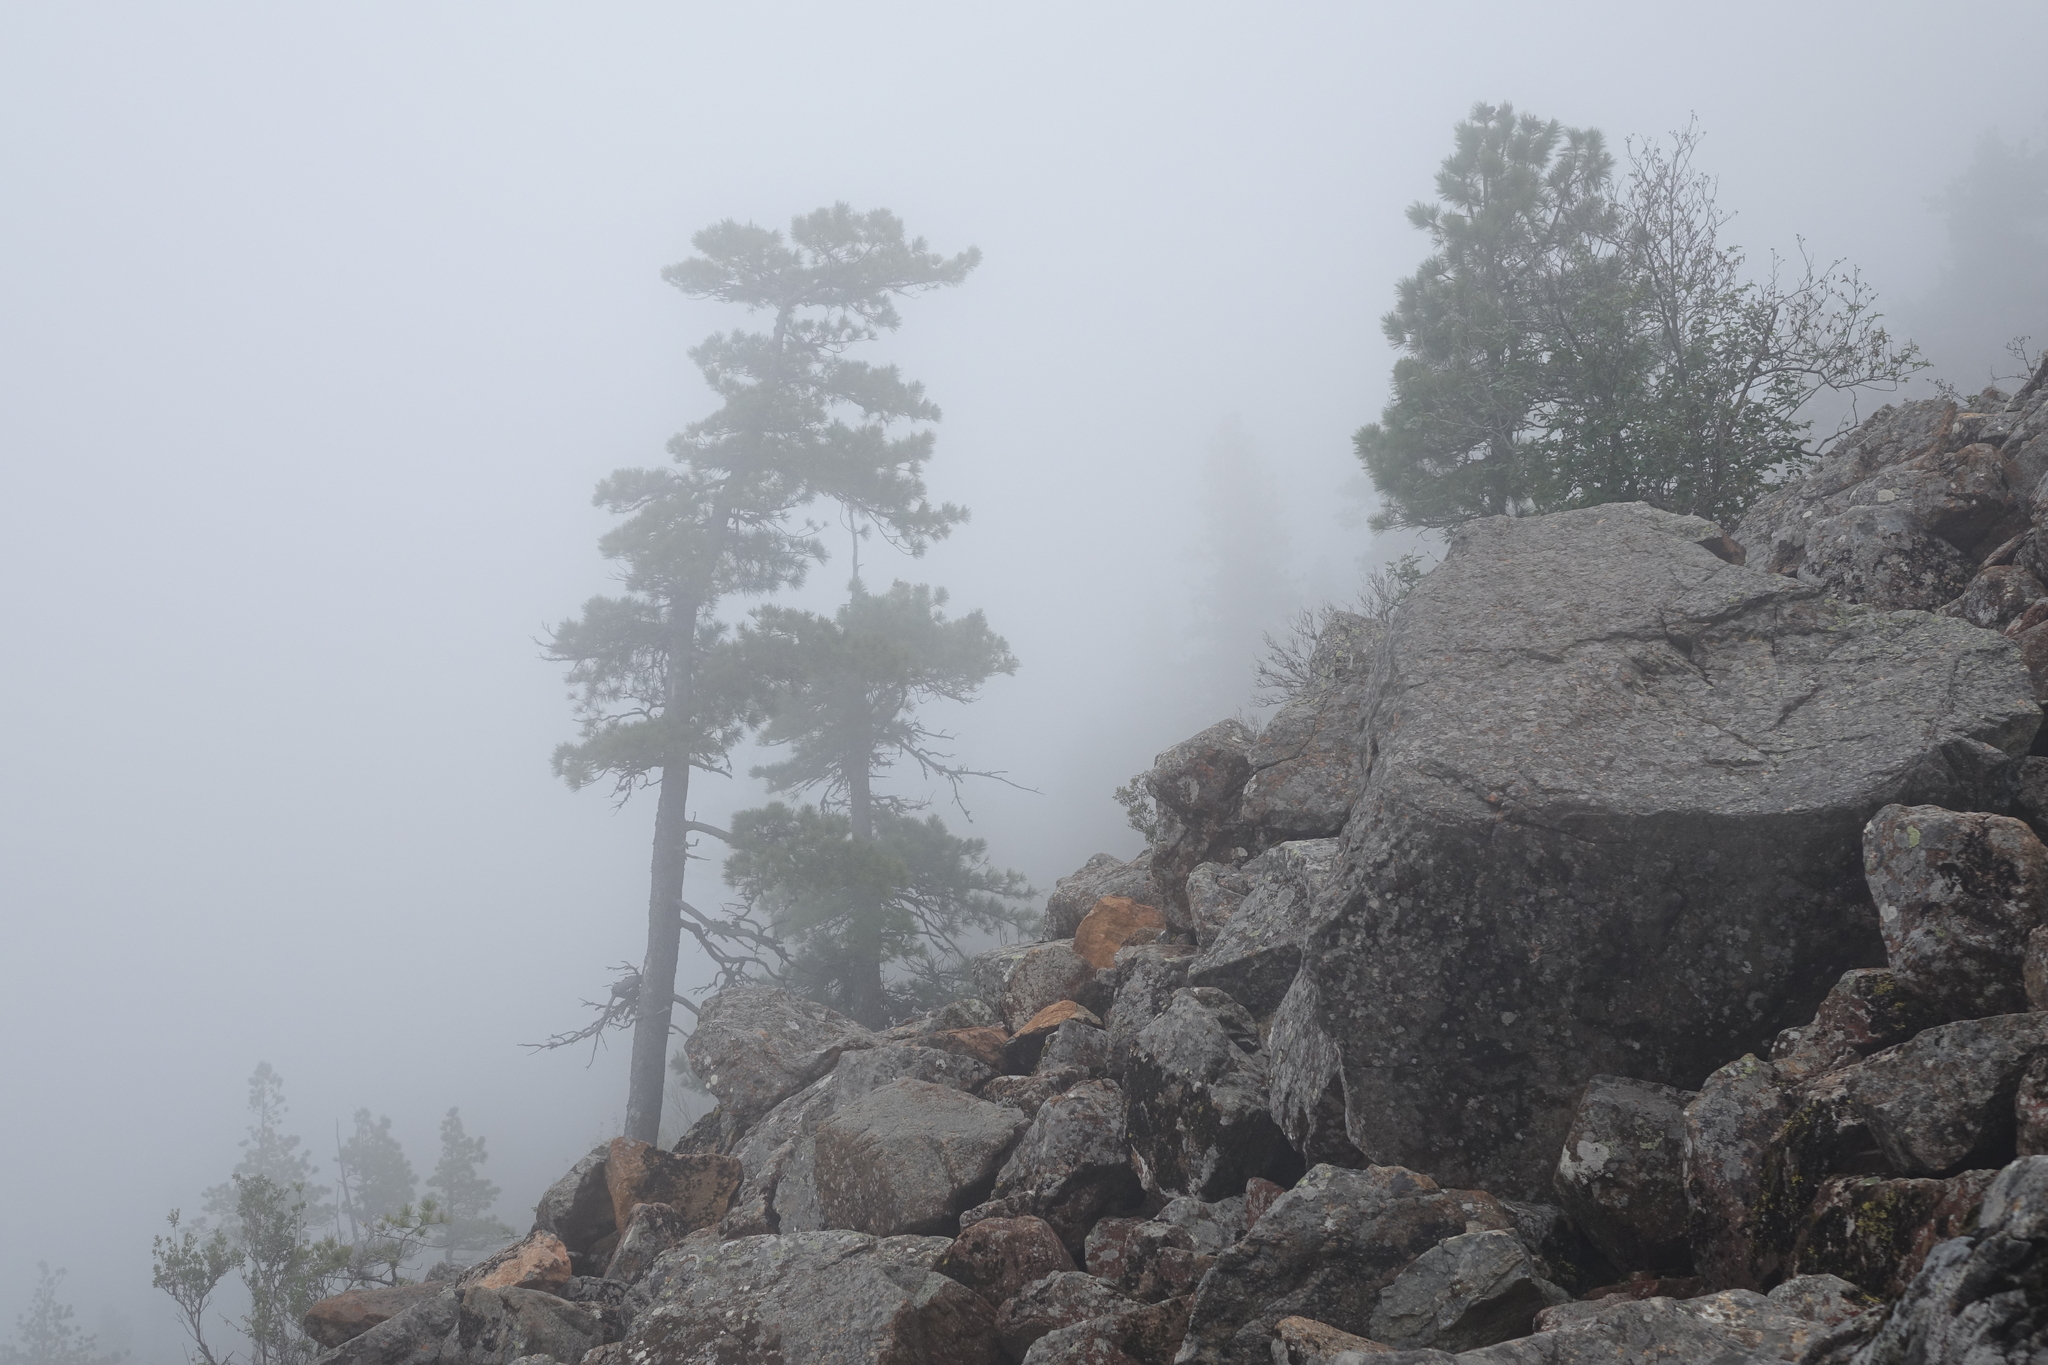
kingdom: Plantae
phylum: Tracheophyta
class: Pinopsida
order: Pinales
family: Pinaceae
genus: Pinus
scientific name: Pinus sibirica
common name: Siberian pine
